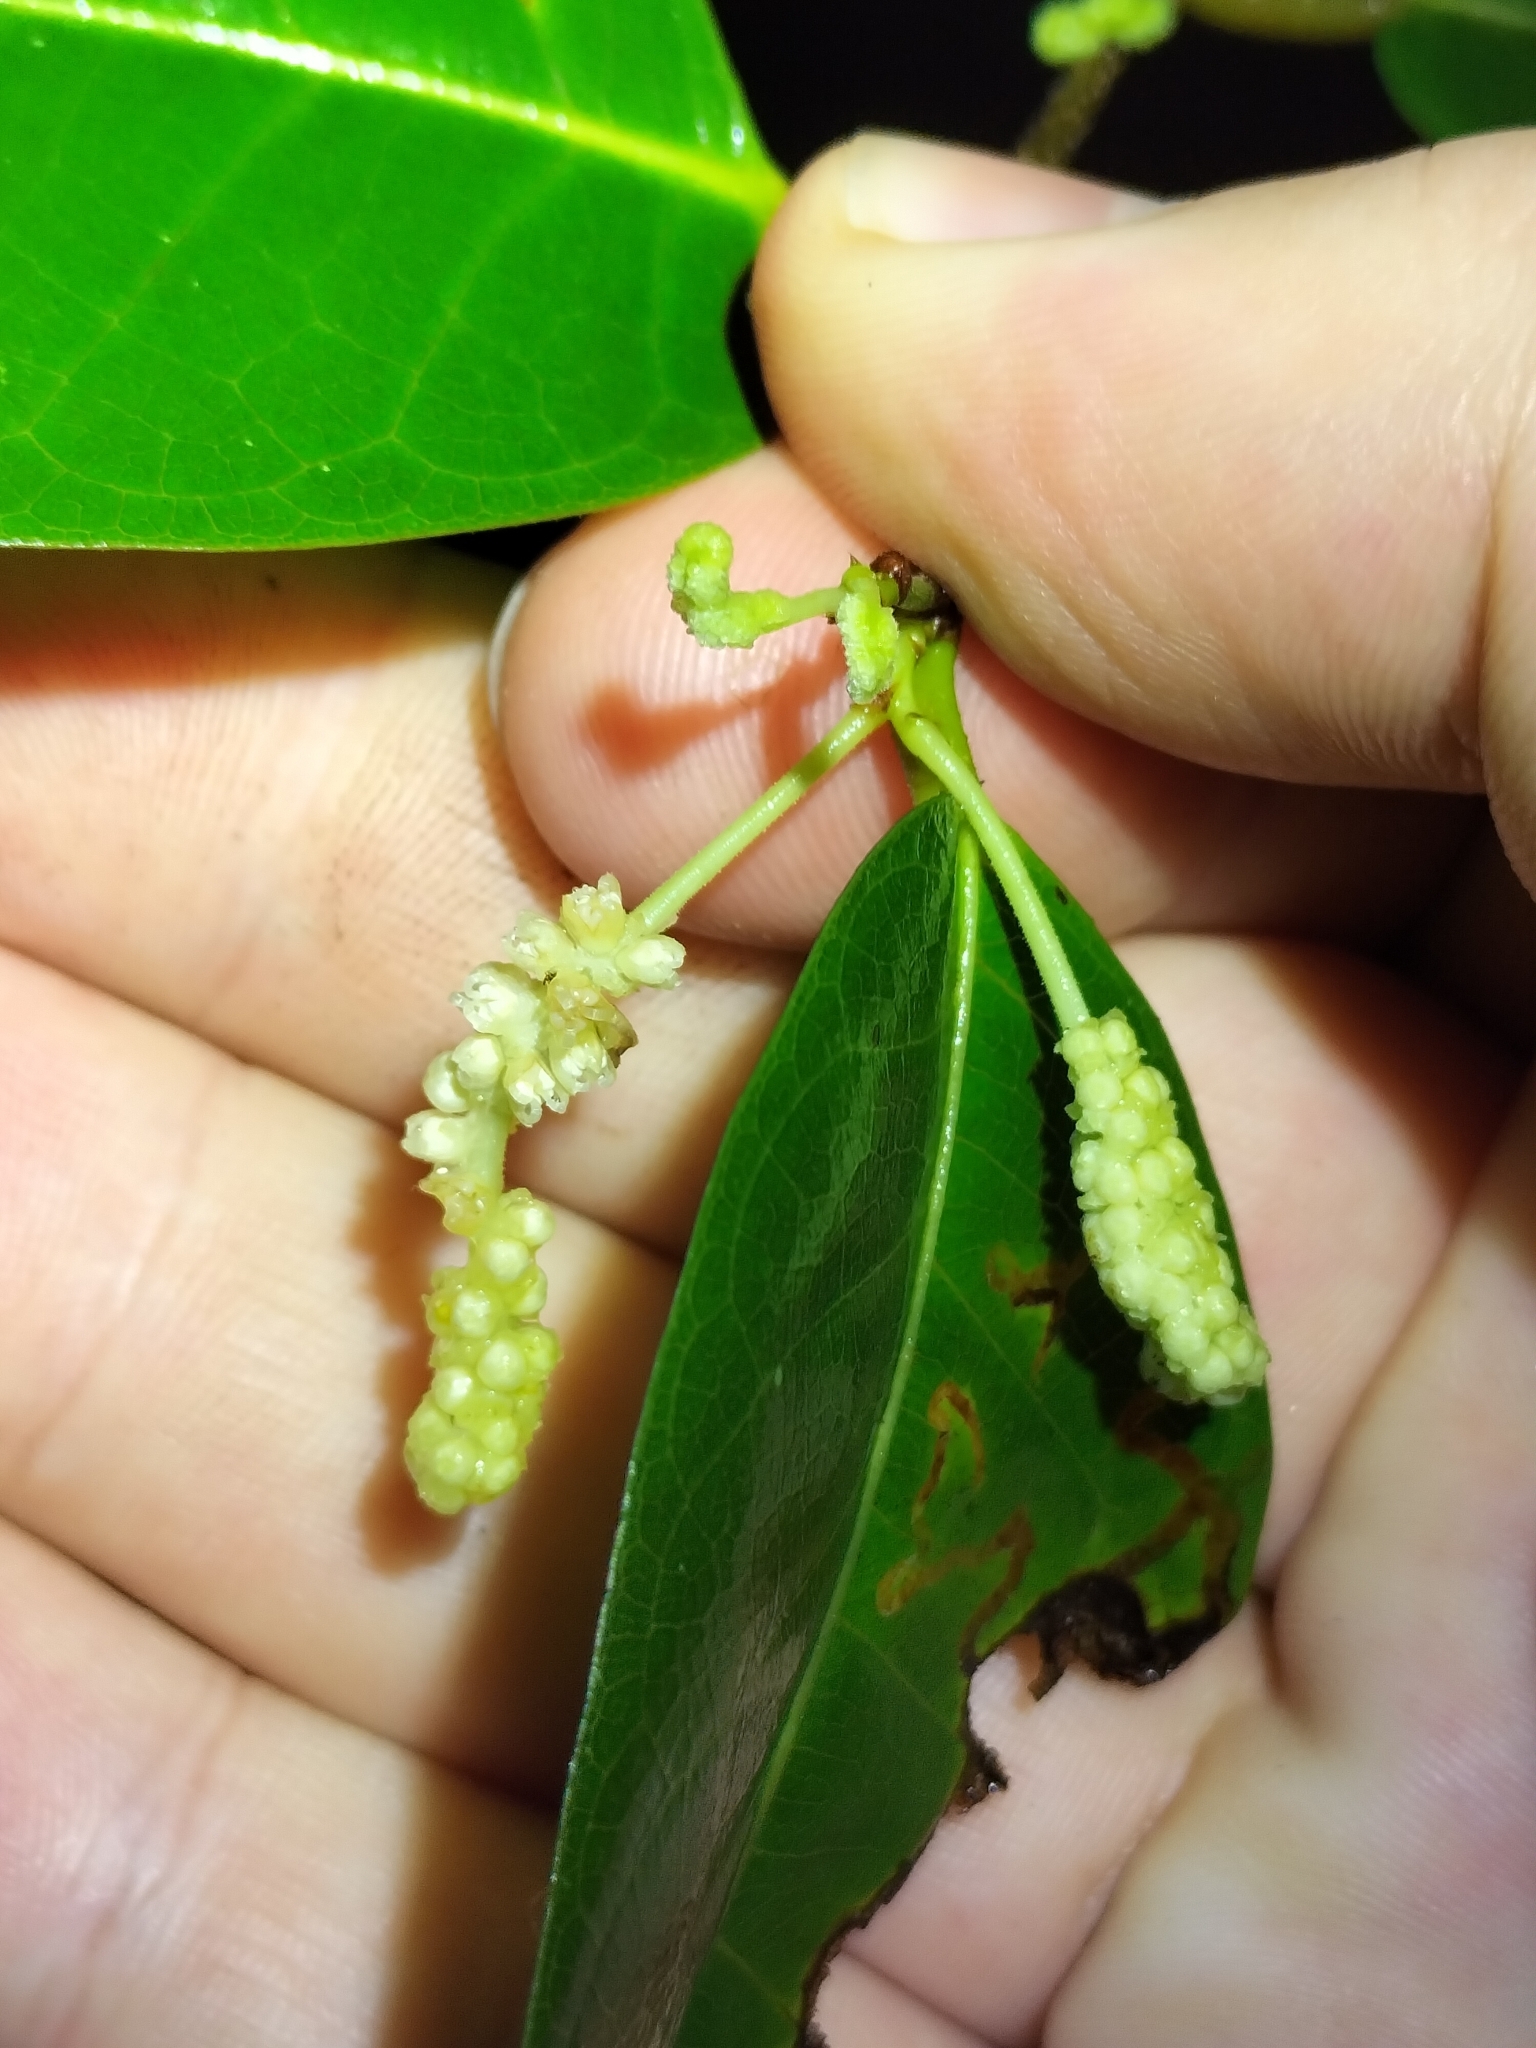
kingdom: Plantae
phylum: Tracheophyta
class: Magnoliopsida
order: Rosales
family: Moraceae
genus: Malaisia
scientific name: Malaisia scandens
